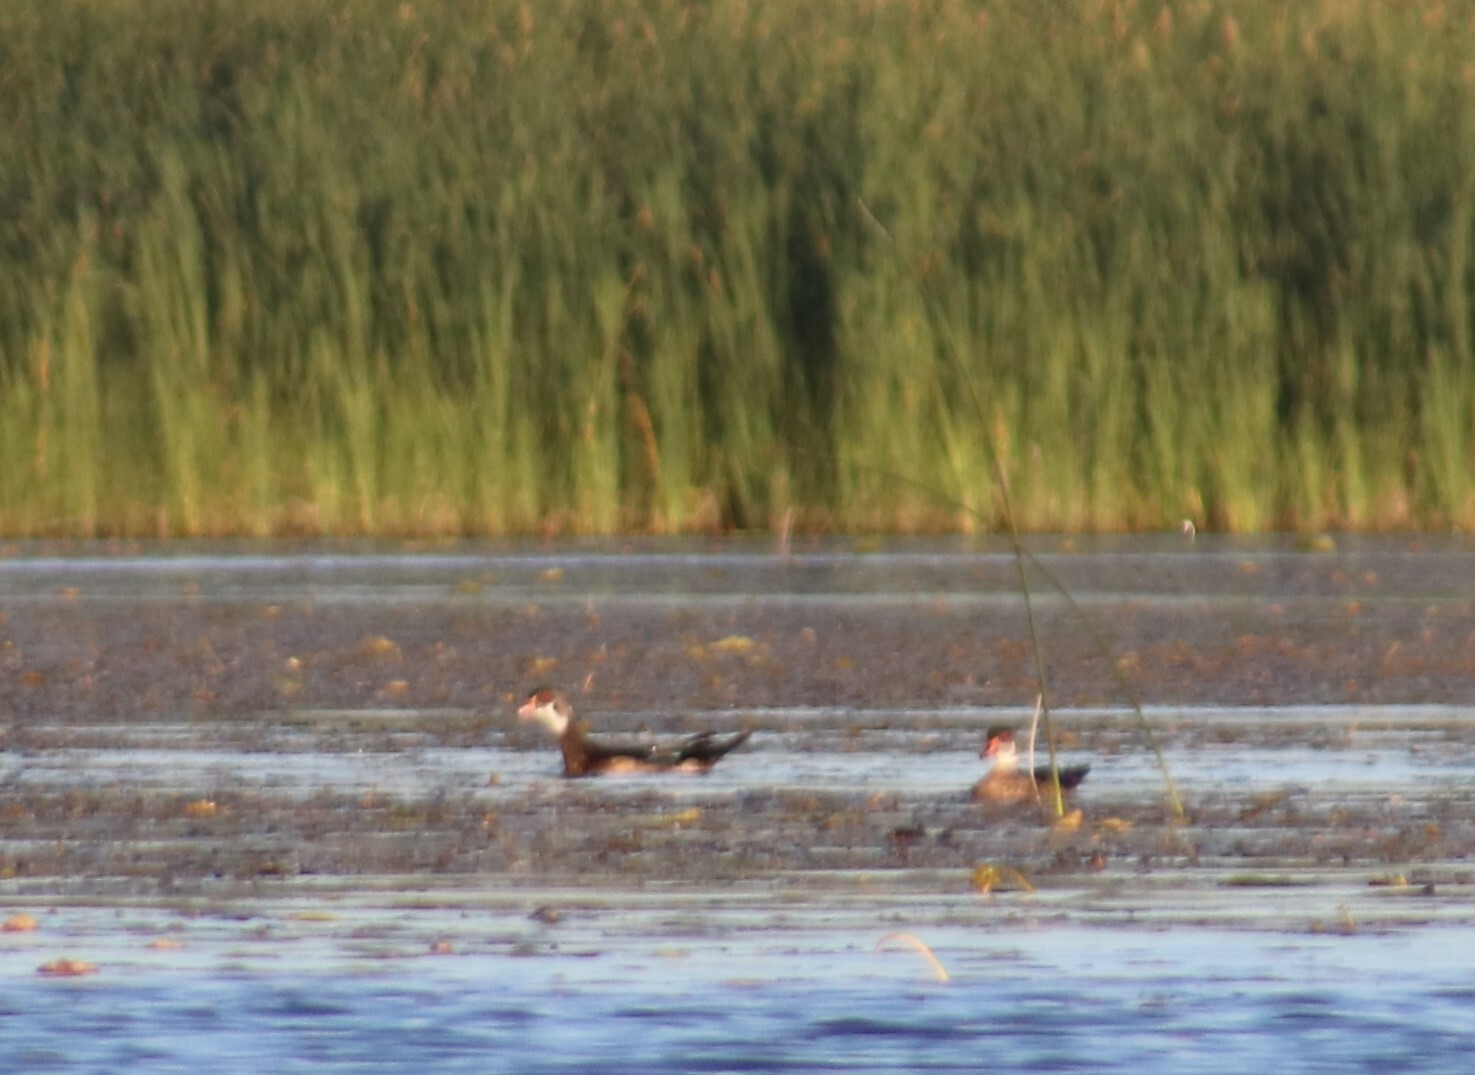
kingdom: Animalia
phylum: Chordata
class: Aves
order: Anseriformes
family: Anatidae
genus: Aix
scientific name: Aix sponsa
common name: Wood duck
